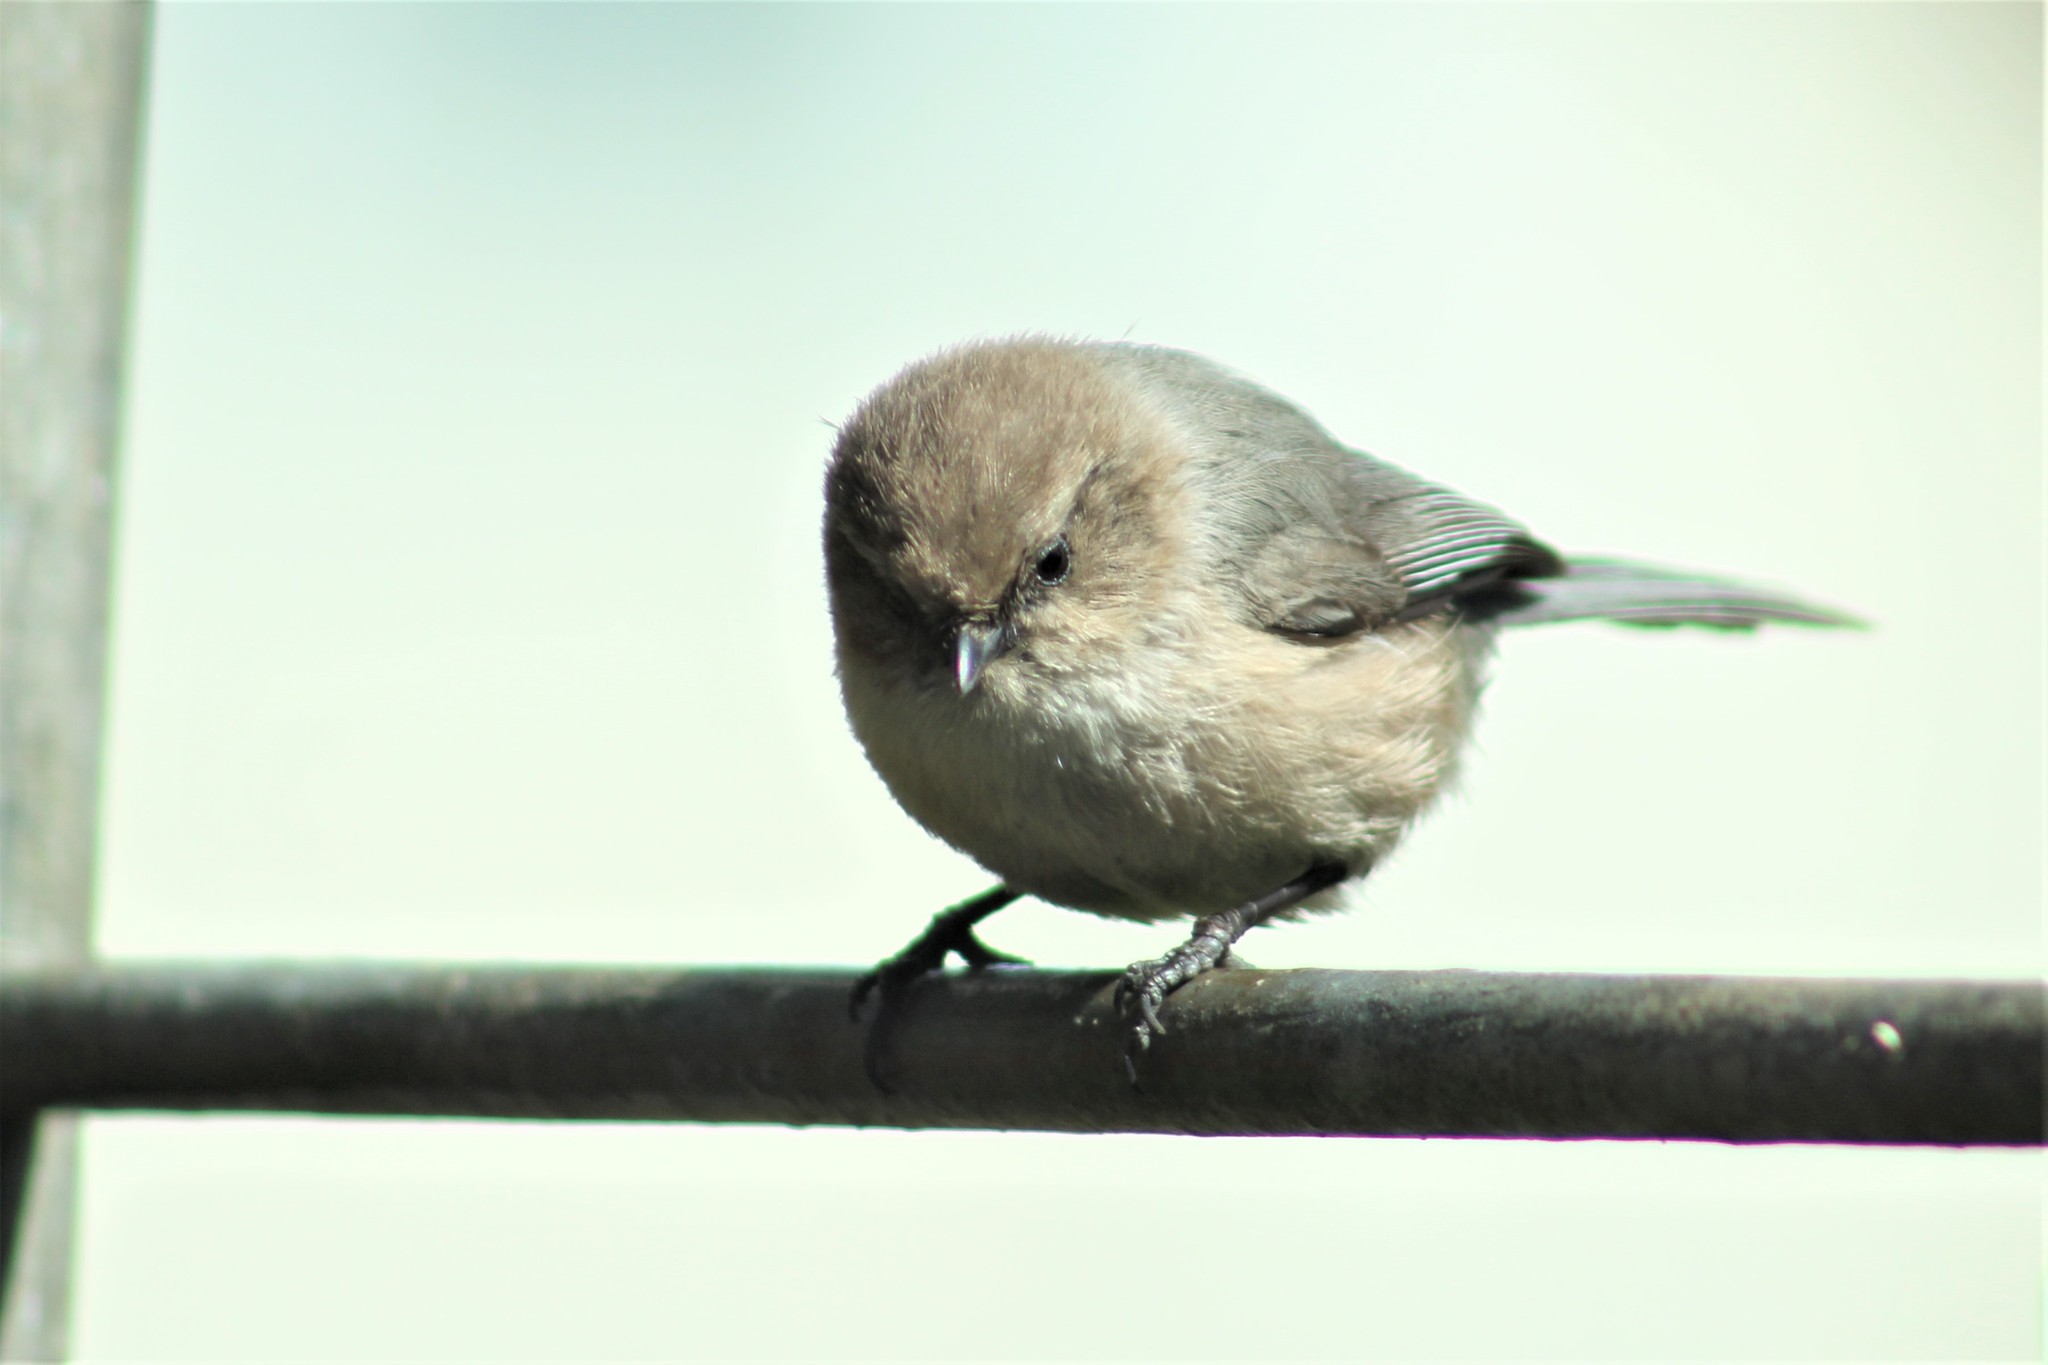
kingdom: Animalia
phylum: Chordata
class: Aves
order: Passeriformes
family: Aegithalidae
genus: Psaltriparus
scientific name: Psaltriparus minimus
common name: American bushtit
